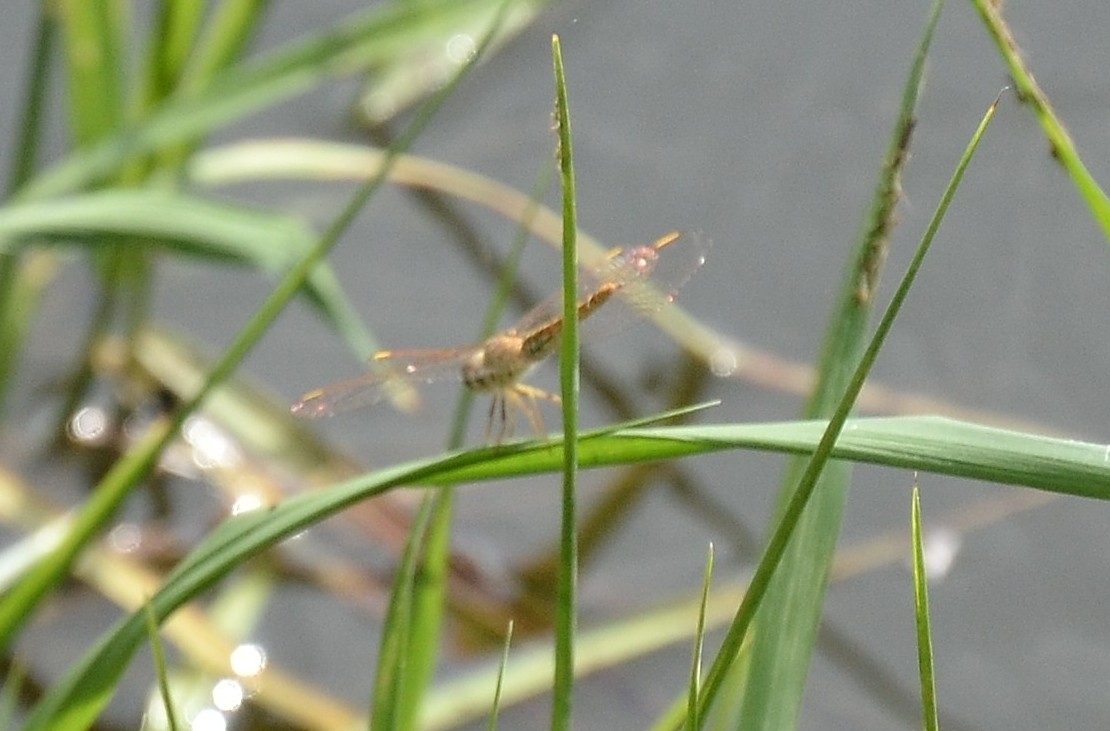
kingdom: Animalia
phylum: Arthropoda
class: Insecta
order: Odonata
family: Libellulidae
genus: Brachythemis
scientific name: Brachythemis contaminata
